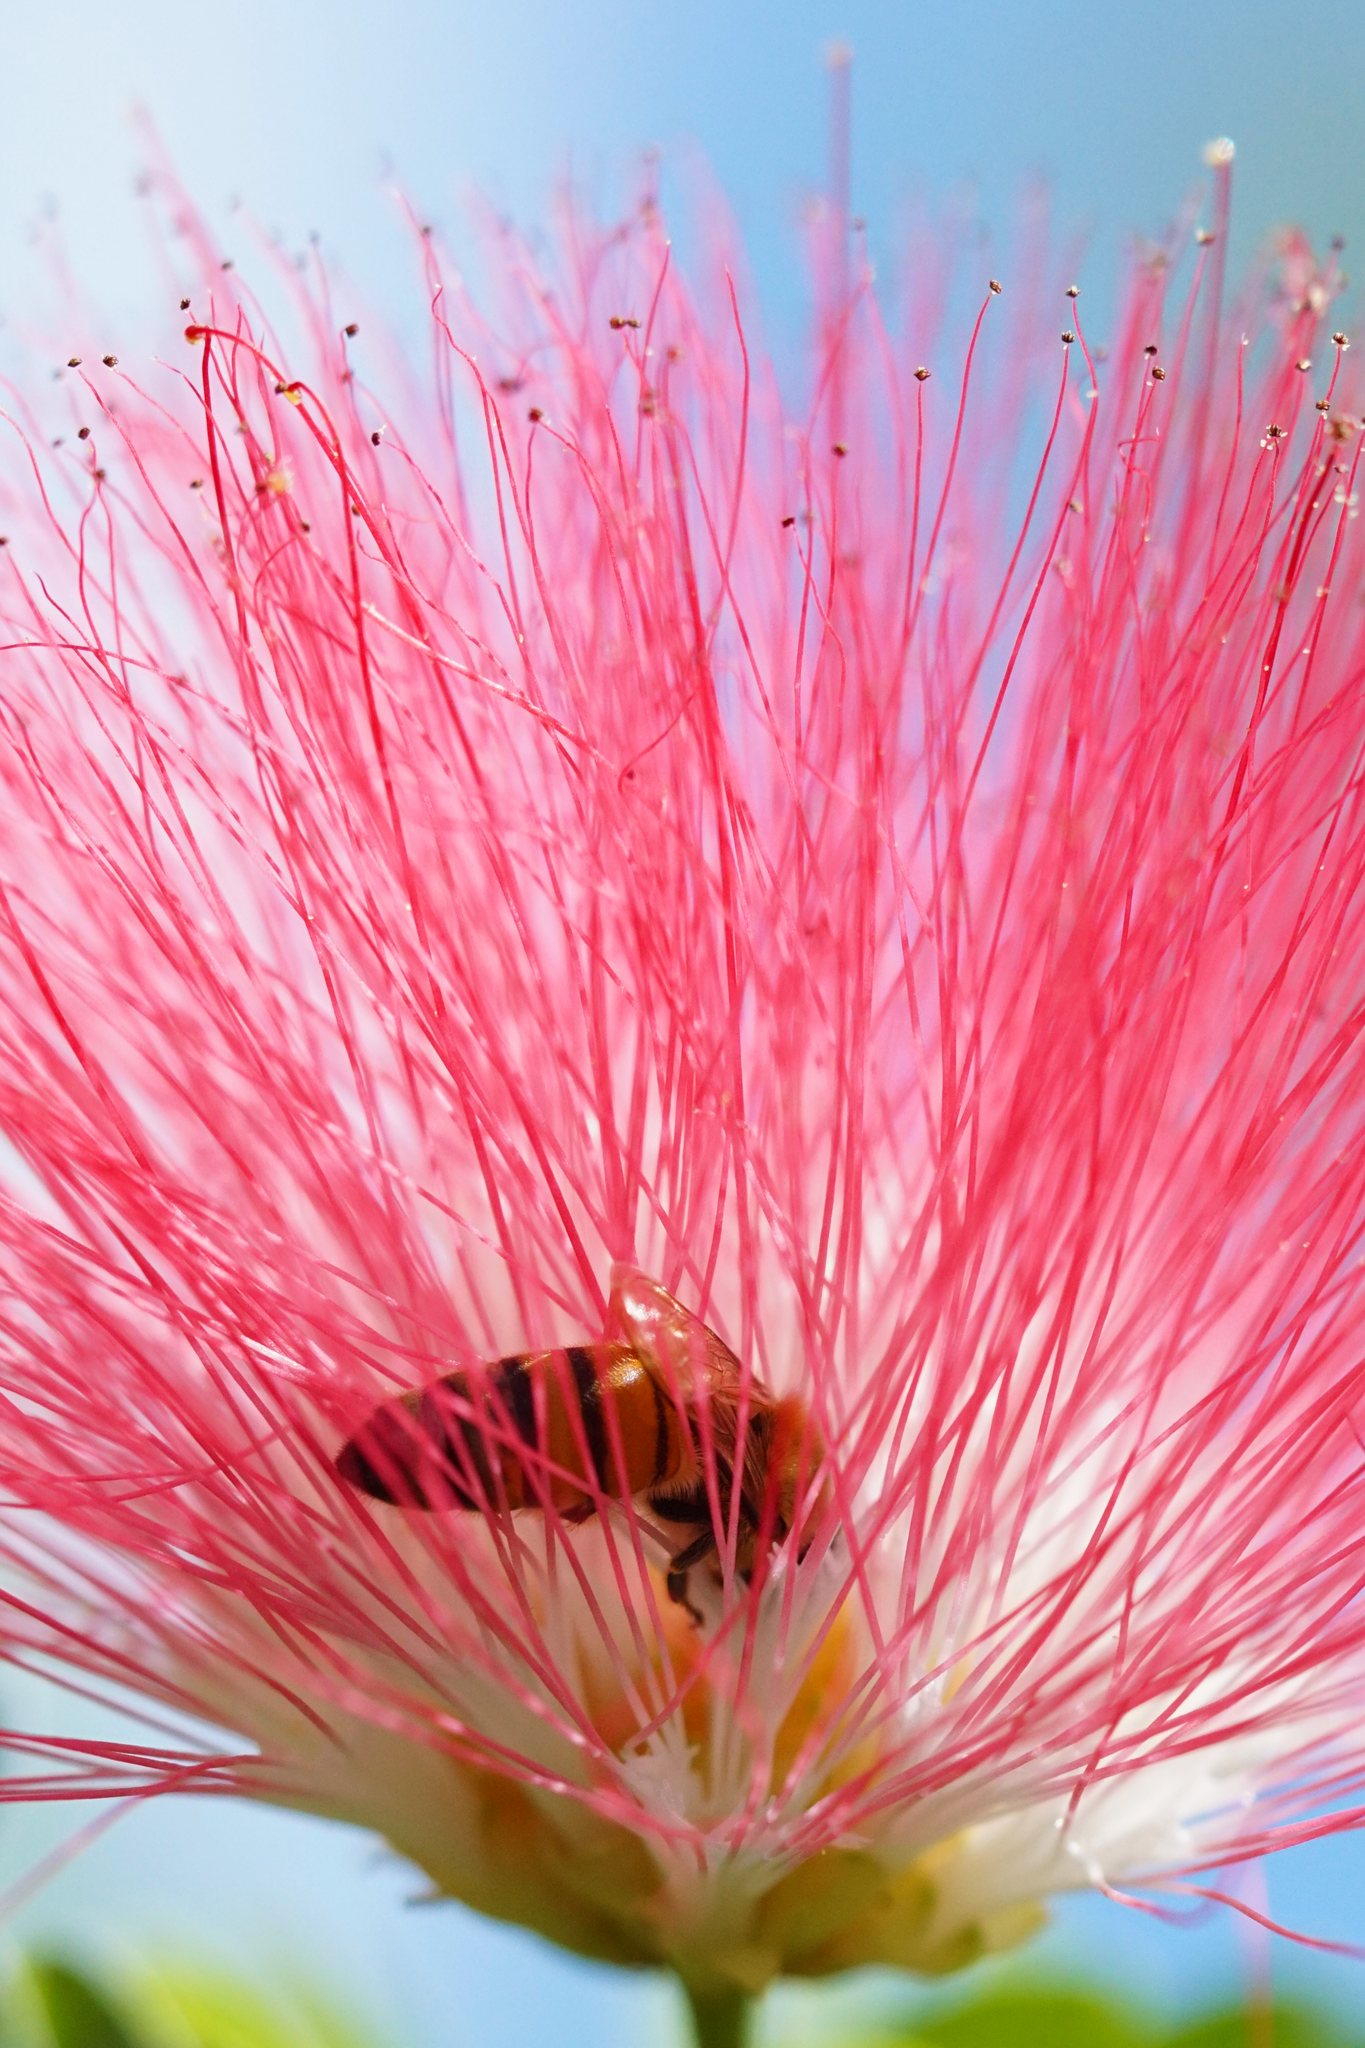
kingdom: Animalia
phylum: Arthropoda
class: Insecta
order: Hymenoptera
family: Apidae
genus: Apis
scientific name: Apis mellifera
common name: Honey bee
